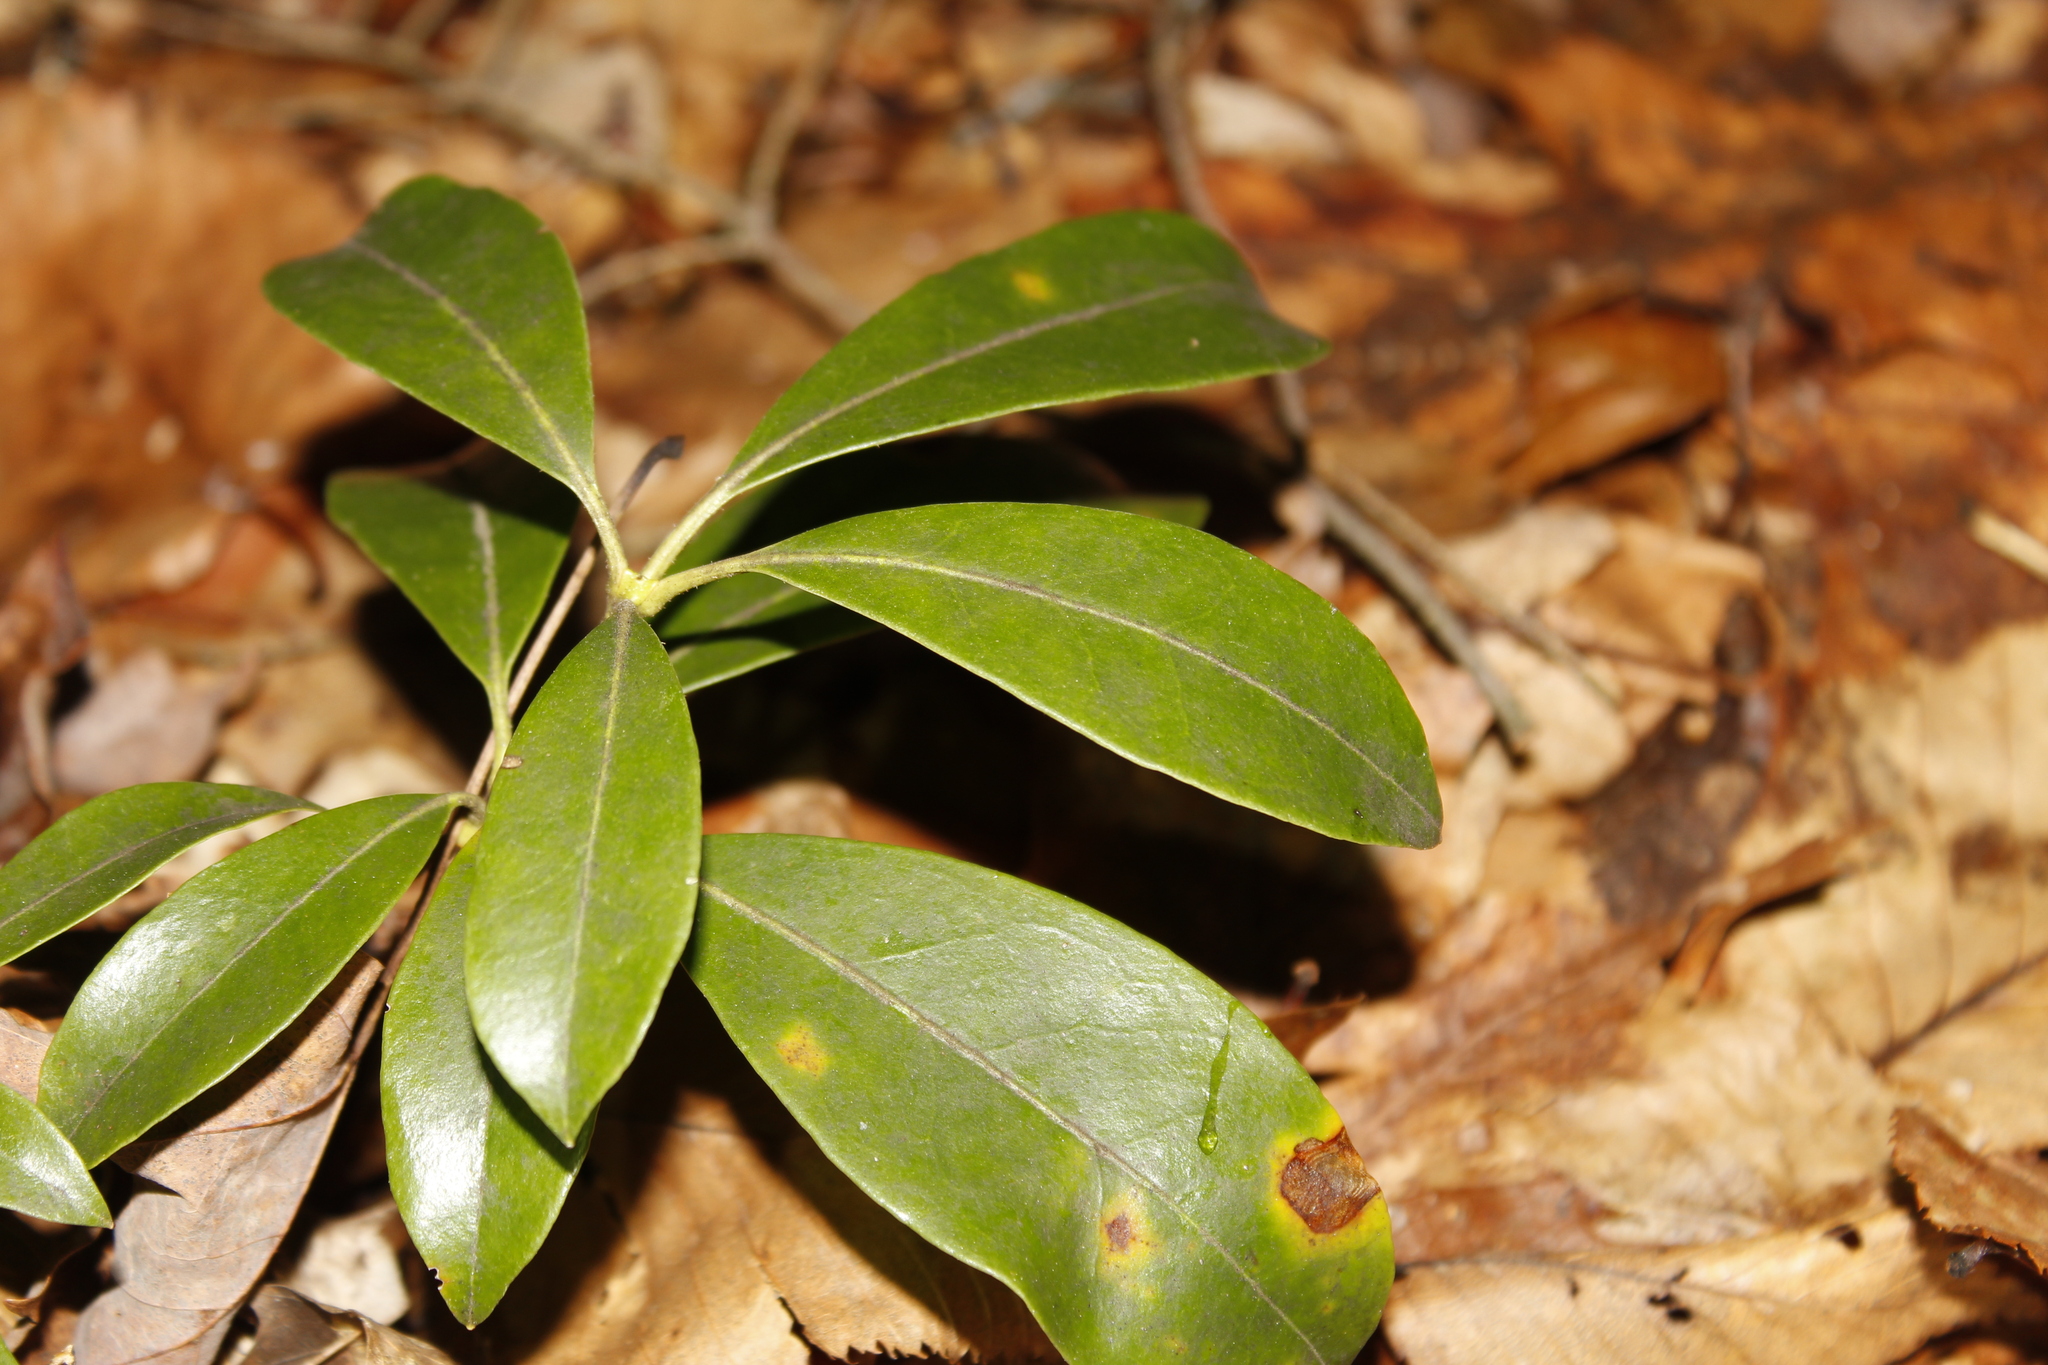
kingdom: Plantae
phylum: Tracheophyta
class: Magnoliopsida
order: Ericales
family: Ericaceae
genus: Kalmia
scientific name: Kalmia latifolia
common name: Mountain-laurel
